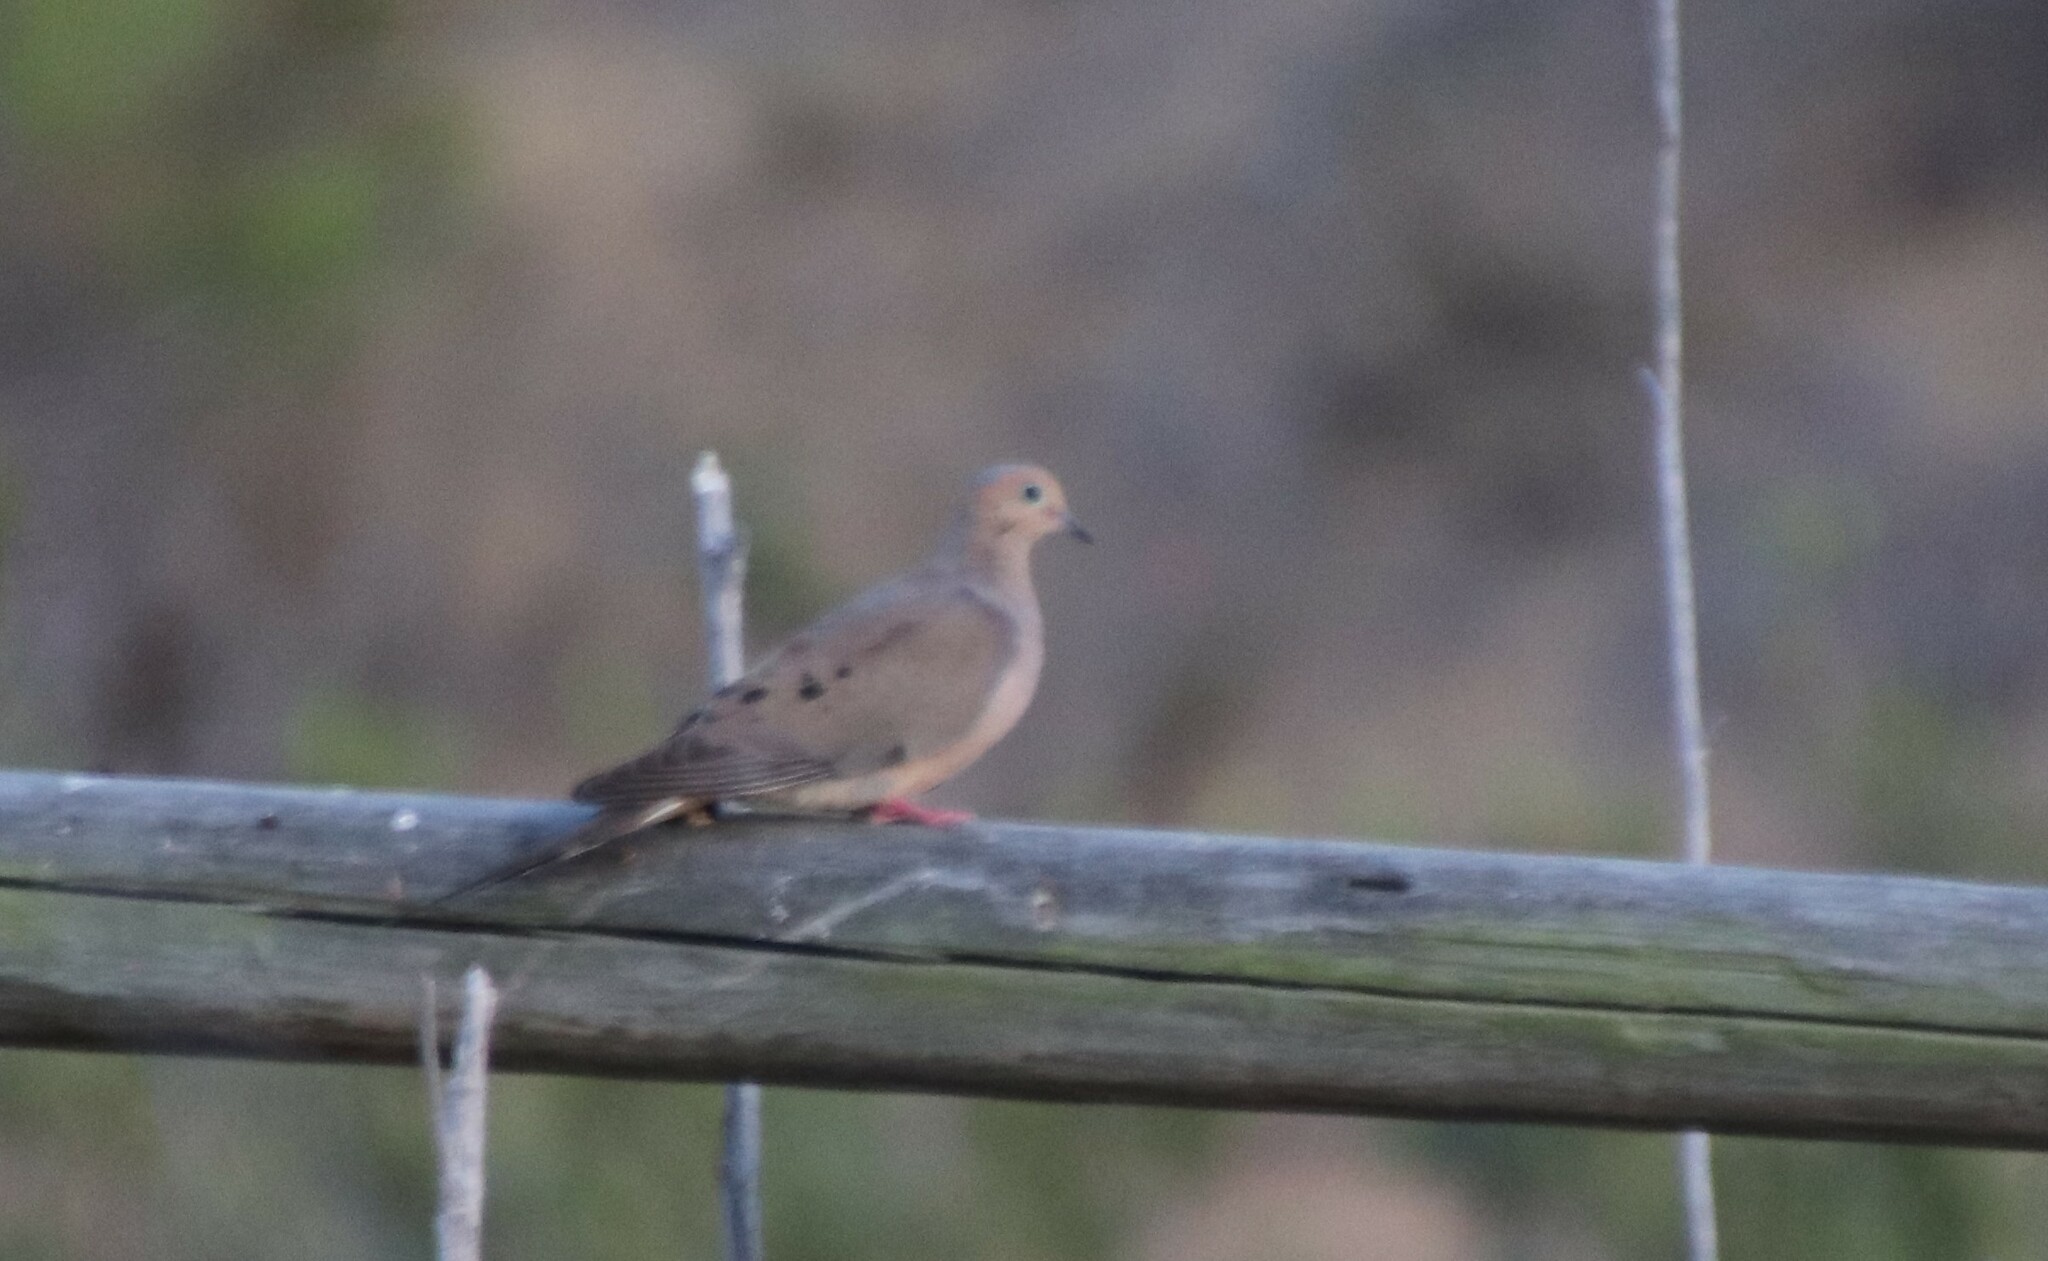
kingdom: Animalia
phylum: Chordata
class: Aves
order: Columbiformes
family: Columbidae
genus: Zenaida
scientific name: Zenaida macroura
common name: Mourning dove
